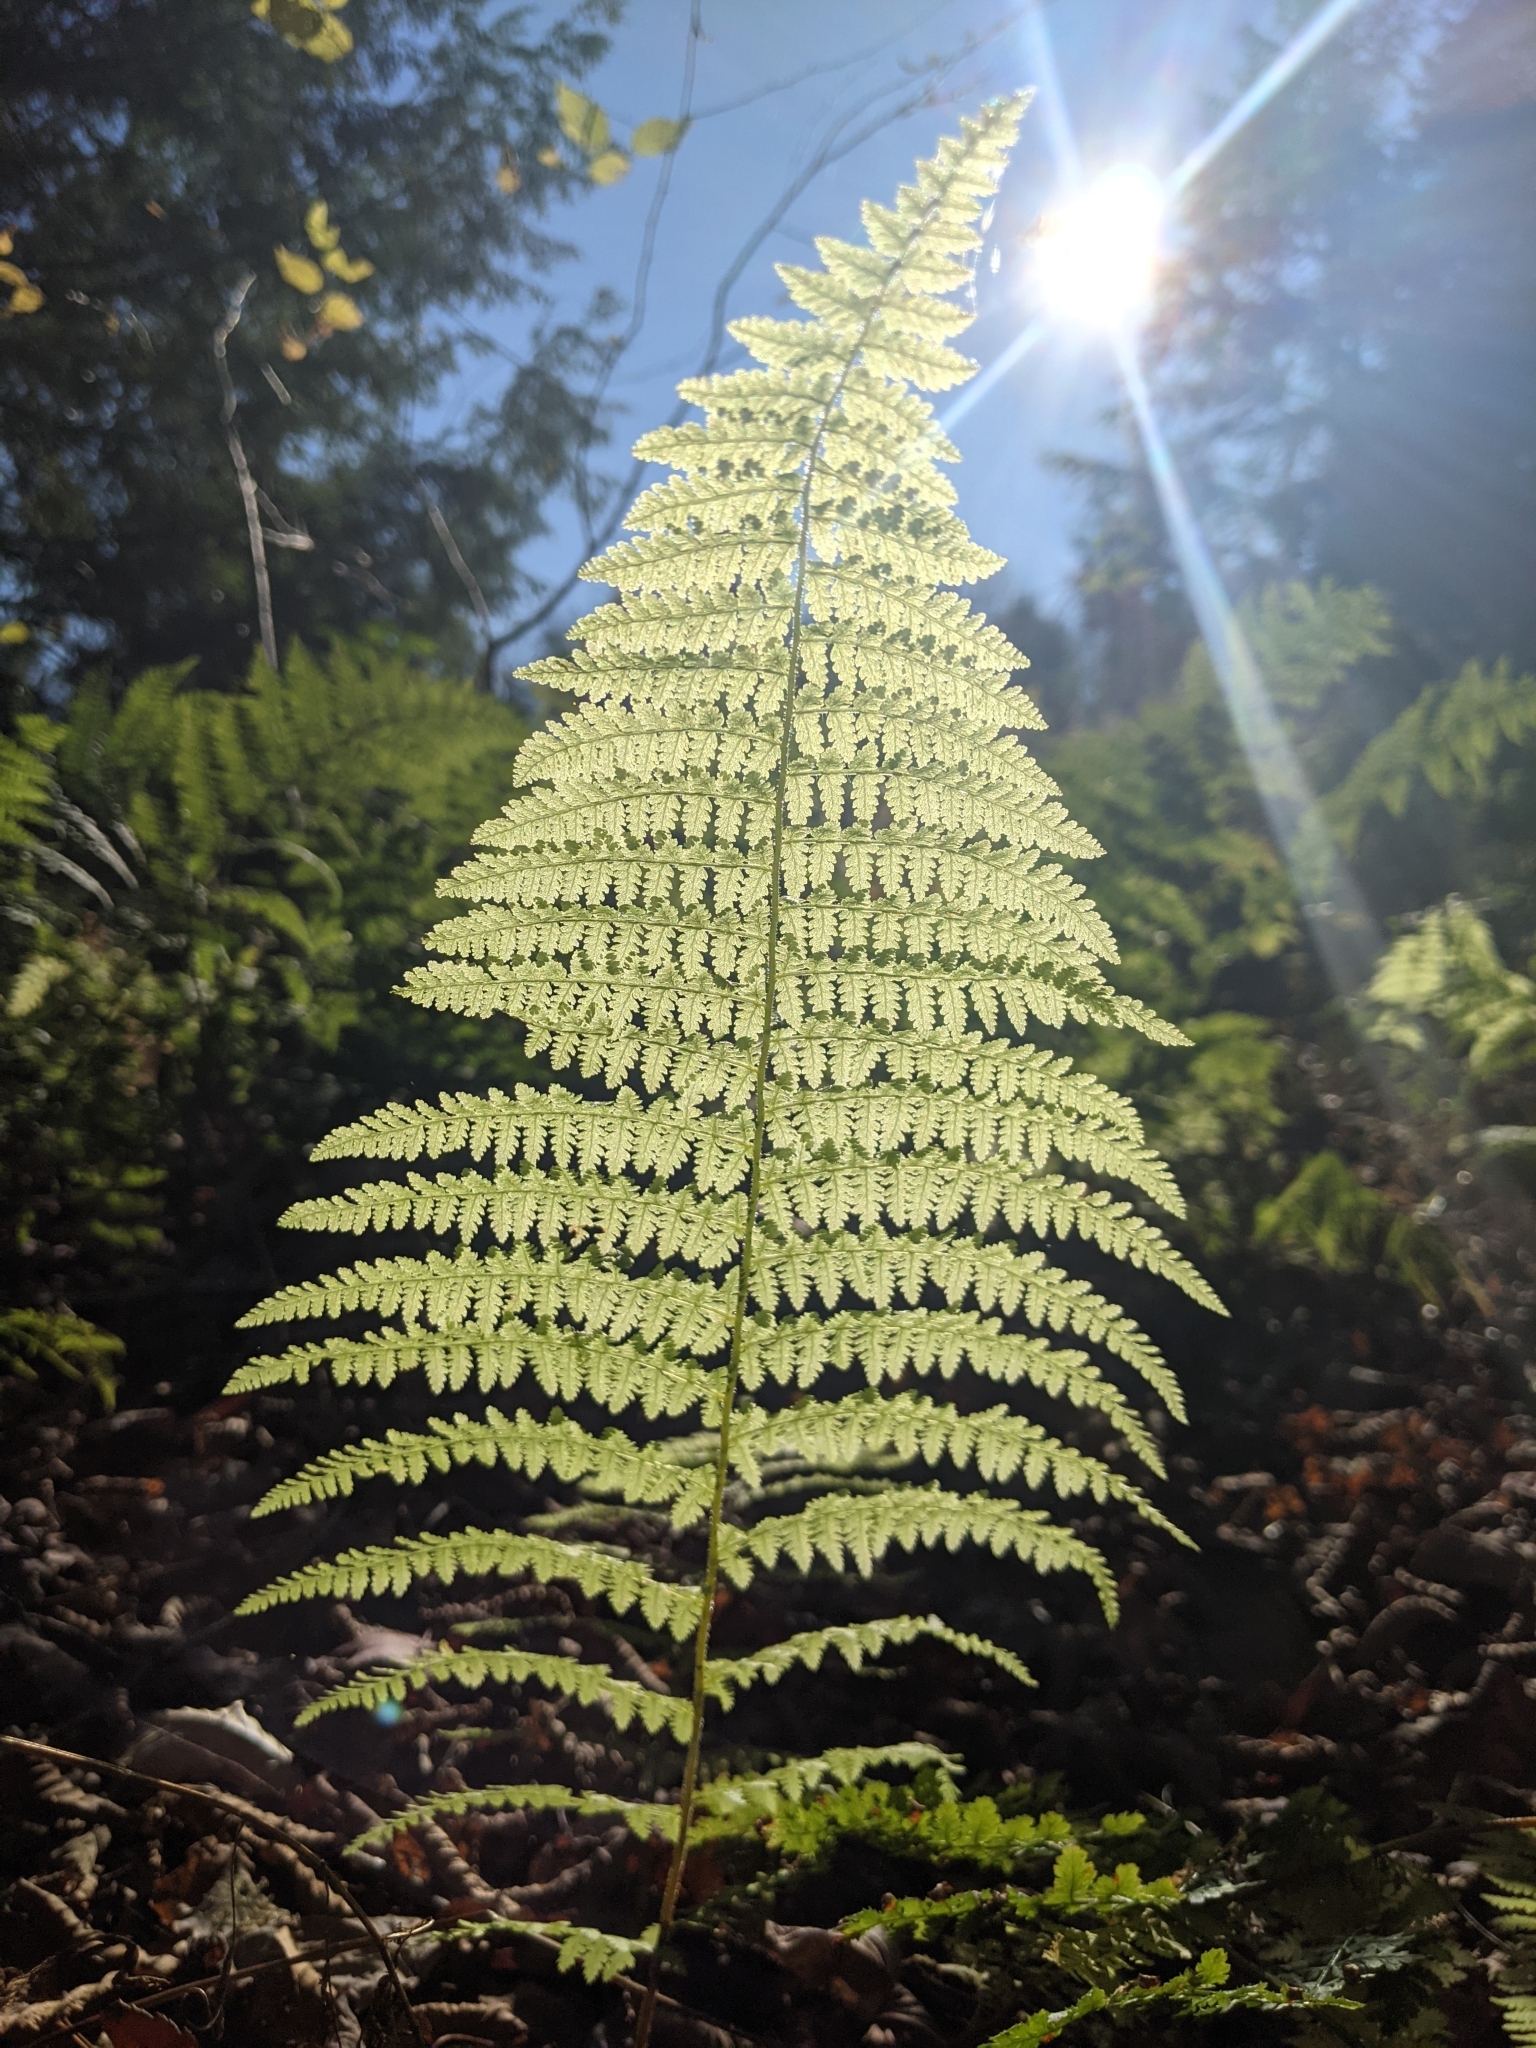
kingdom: Plantae
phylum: Tracheophyta
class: Polypodiopsida
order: Polypodiales
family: Dennstaedtiaceae
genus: Sitobolium
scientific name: Sitobolium punctilobum
